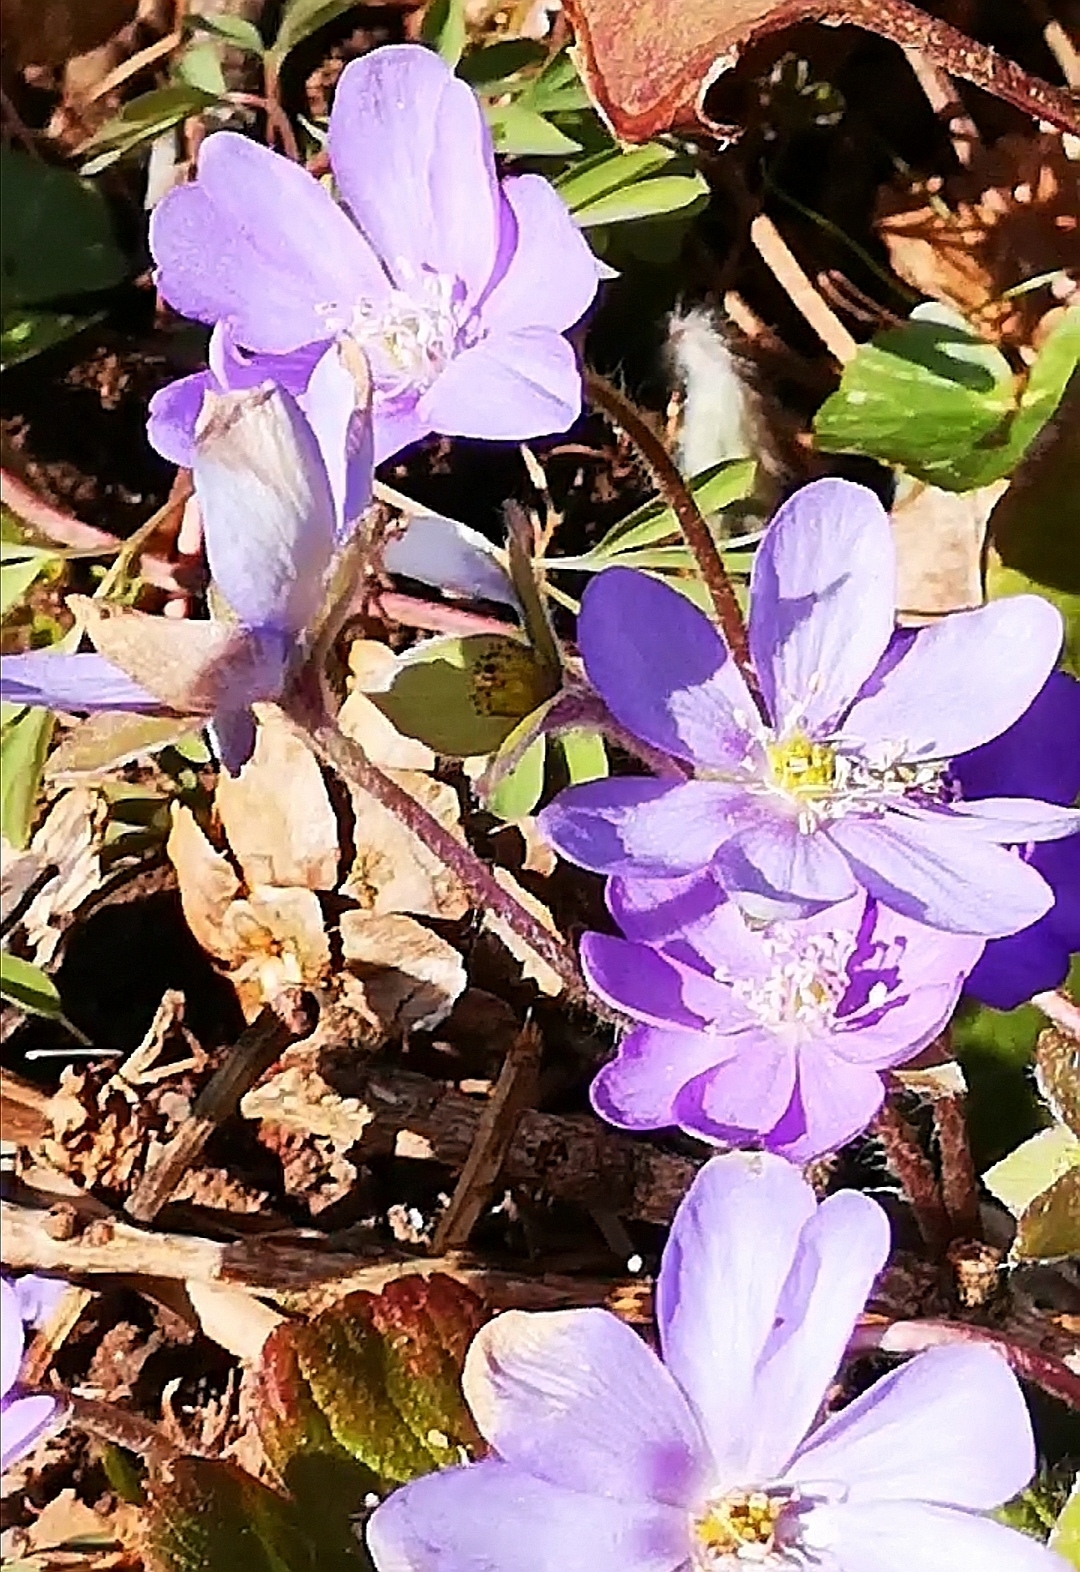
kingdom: Plantae
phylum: Tracheophyta
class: Magnoliopsida
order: Ranunculales
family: Ranunculaceae
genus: Hepatica
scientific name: Hepatica nobilis
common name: Liverleaf
